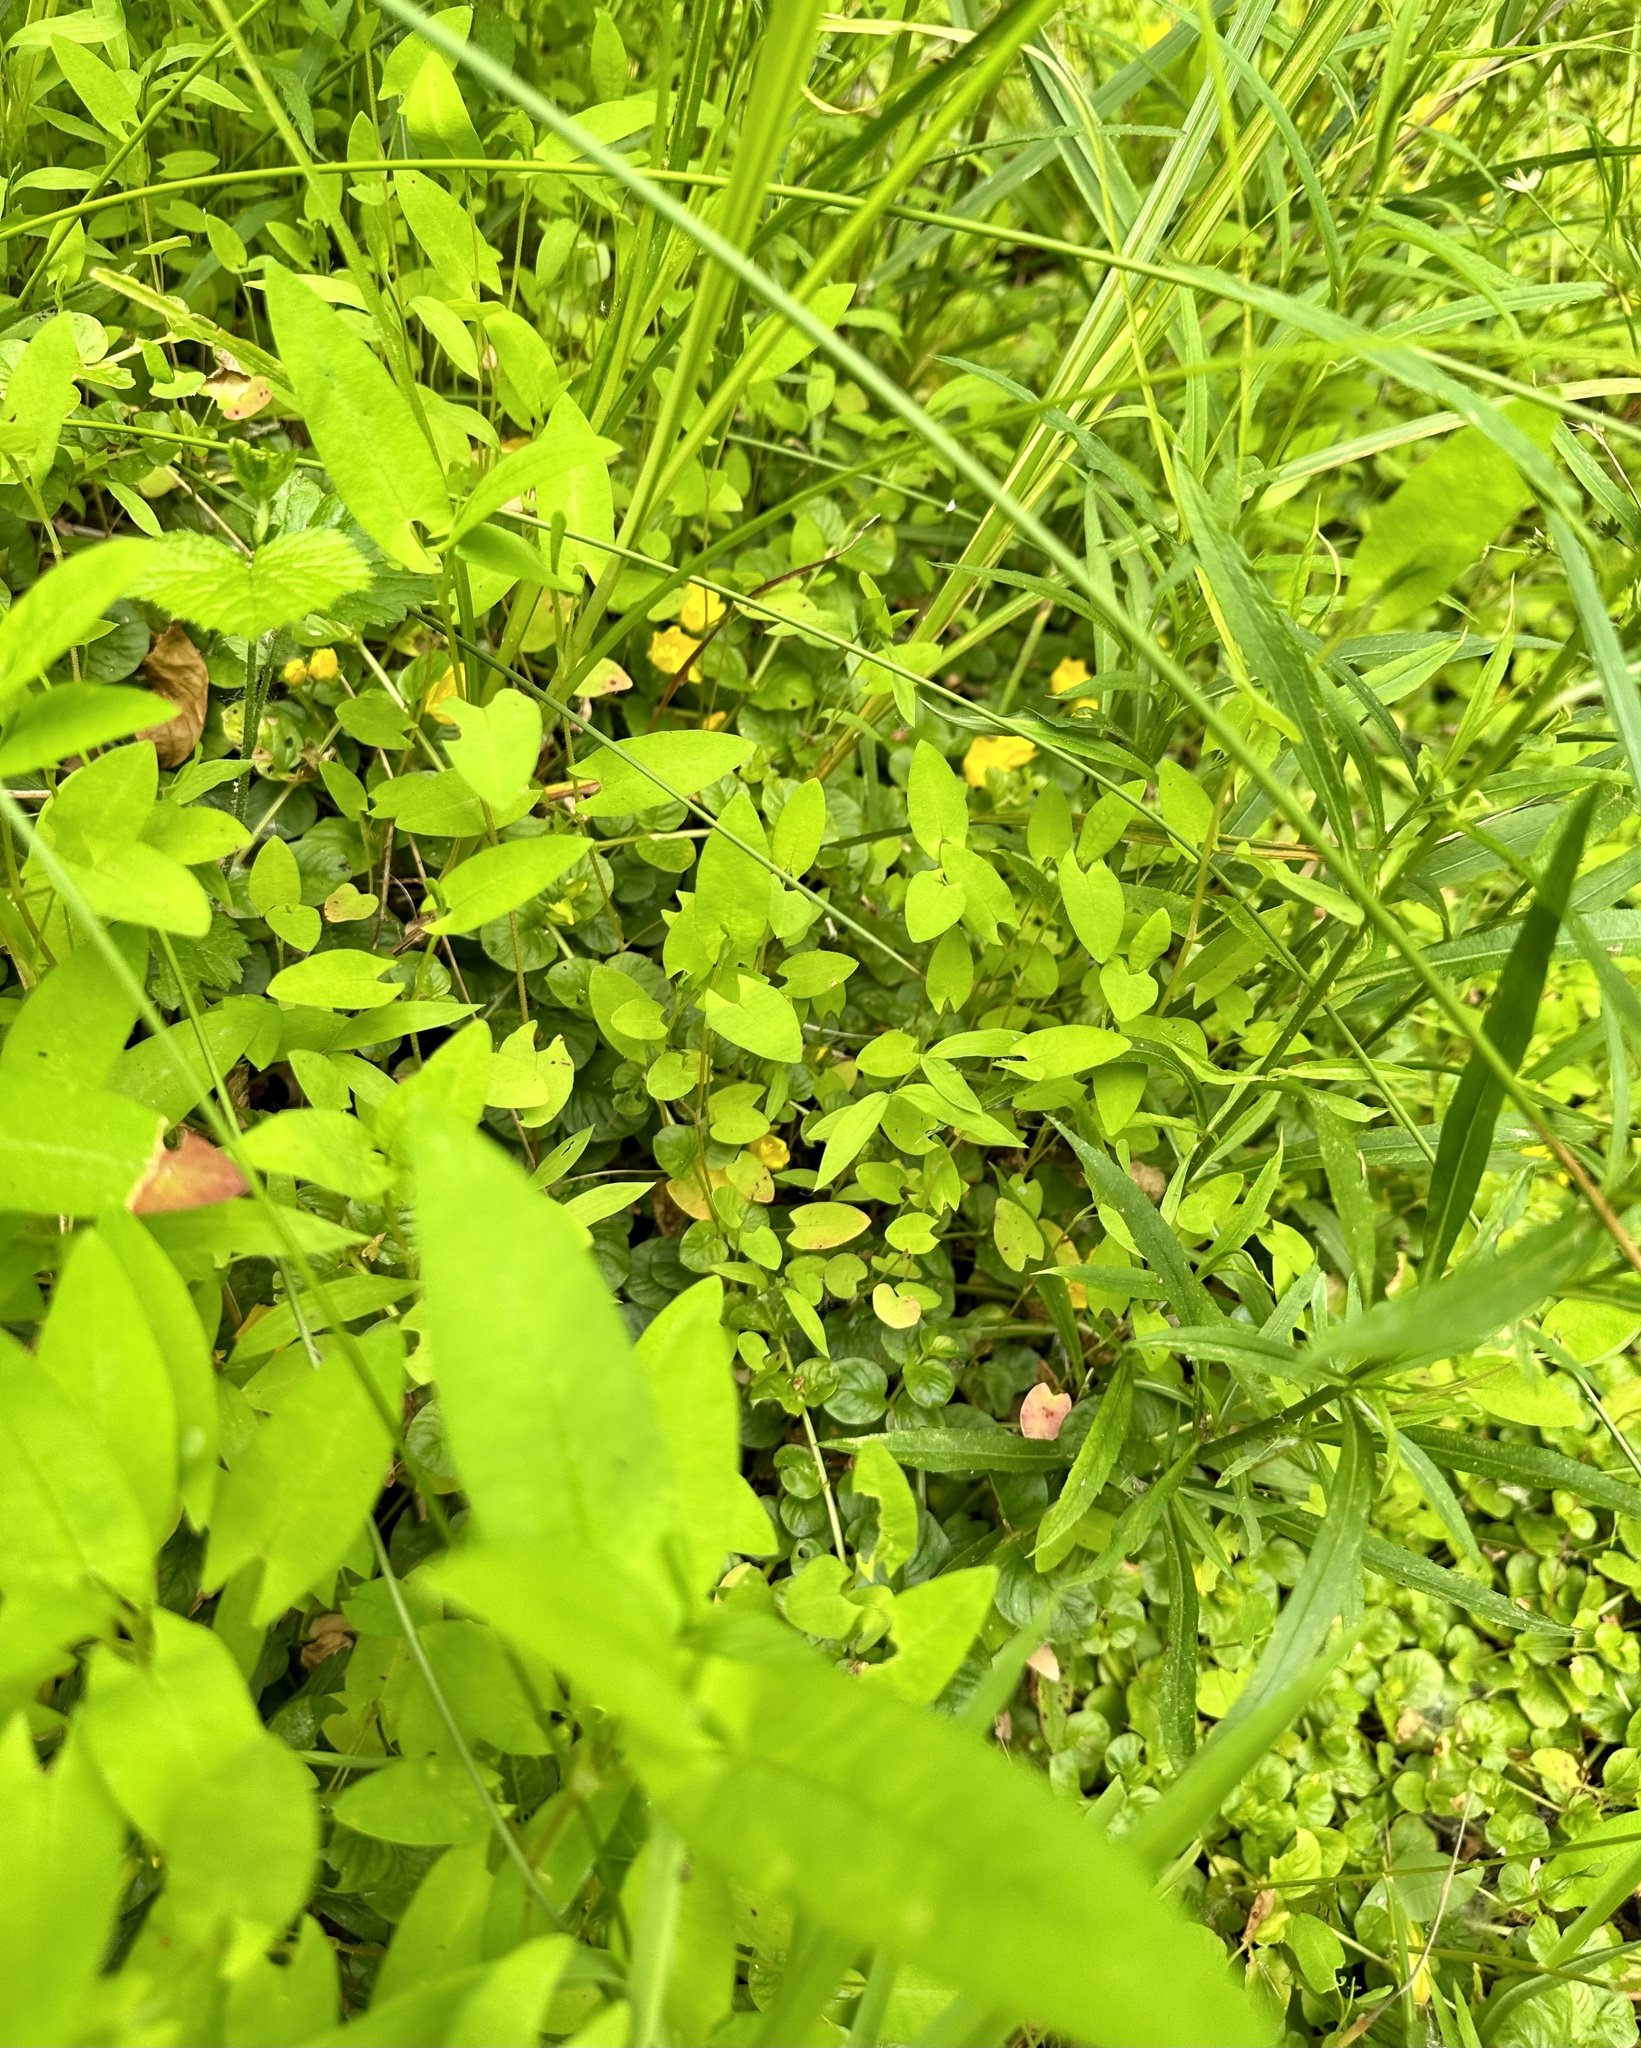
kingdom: Plantae
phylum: Tracheophyta
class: Magnoliopsida
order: Caryophyllales
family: Polygonaceae
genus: Persicaria
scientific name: Persicaria sagittata
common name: American tearthumb
